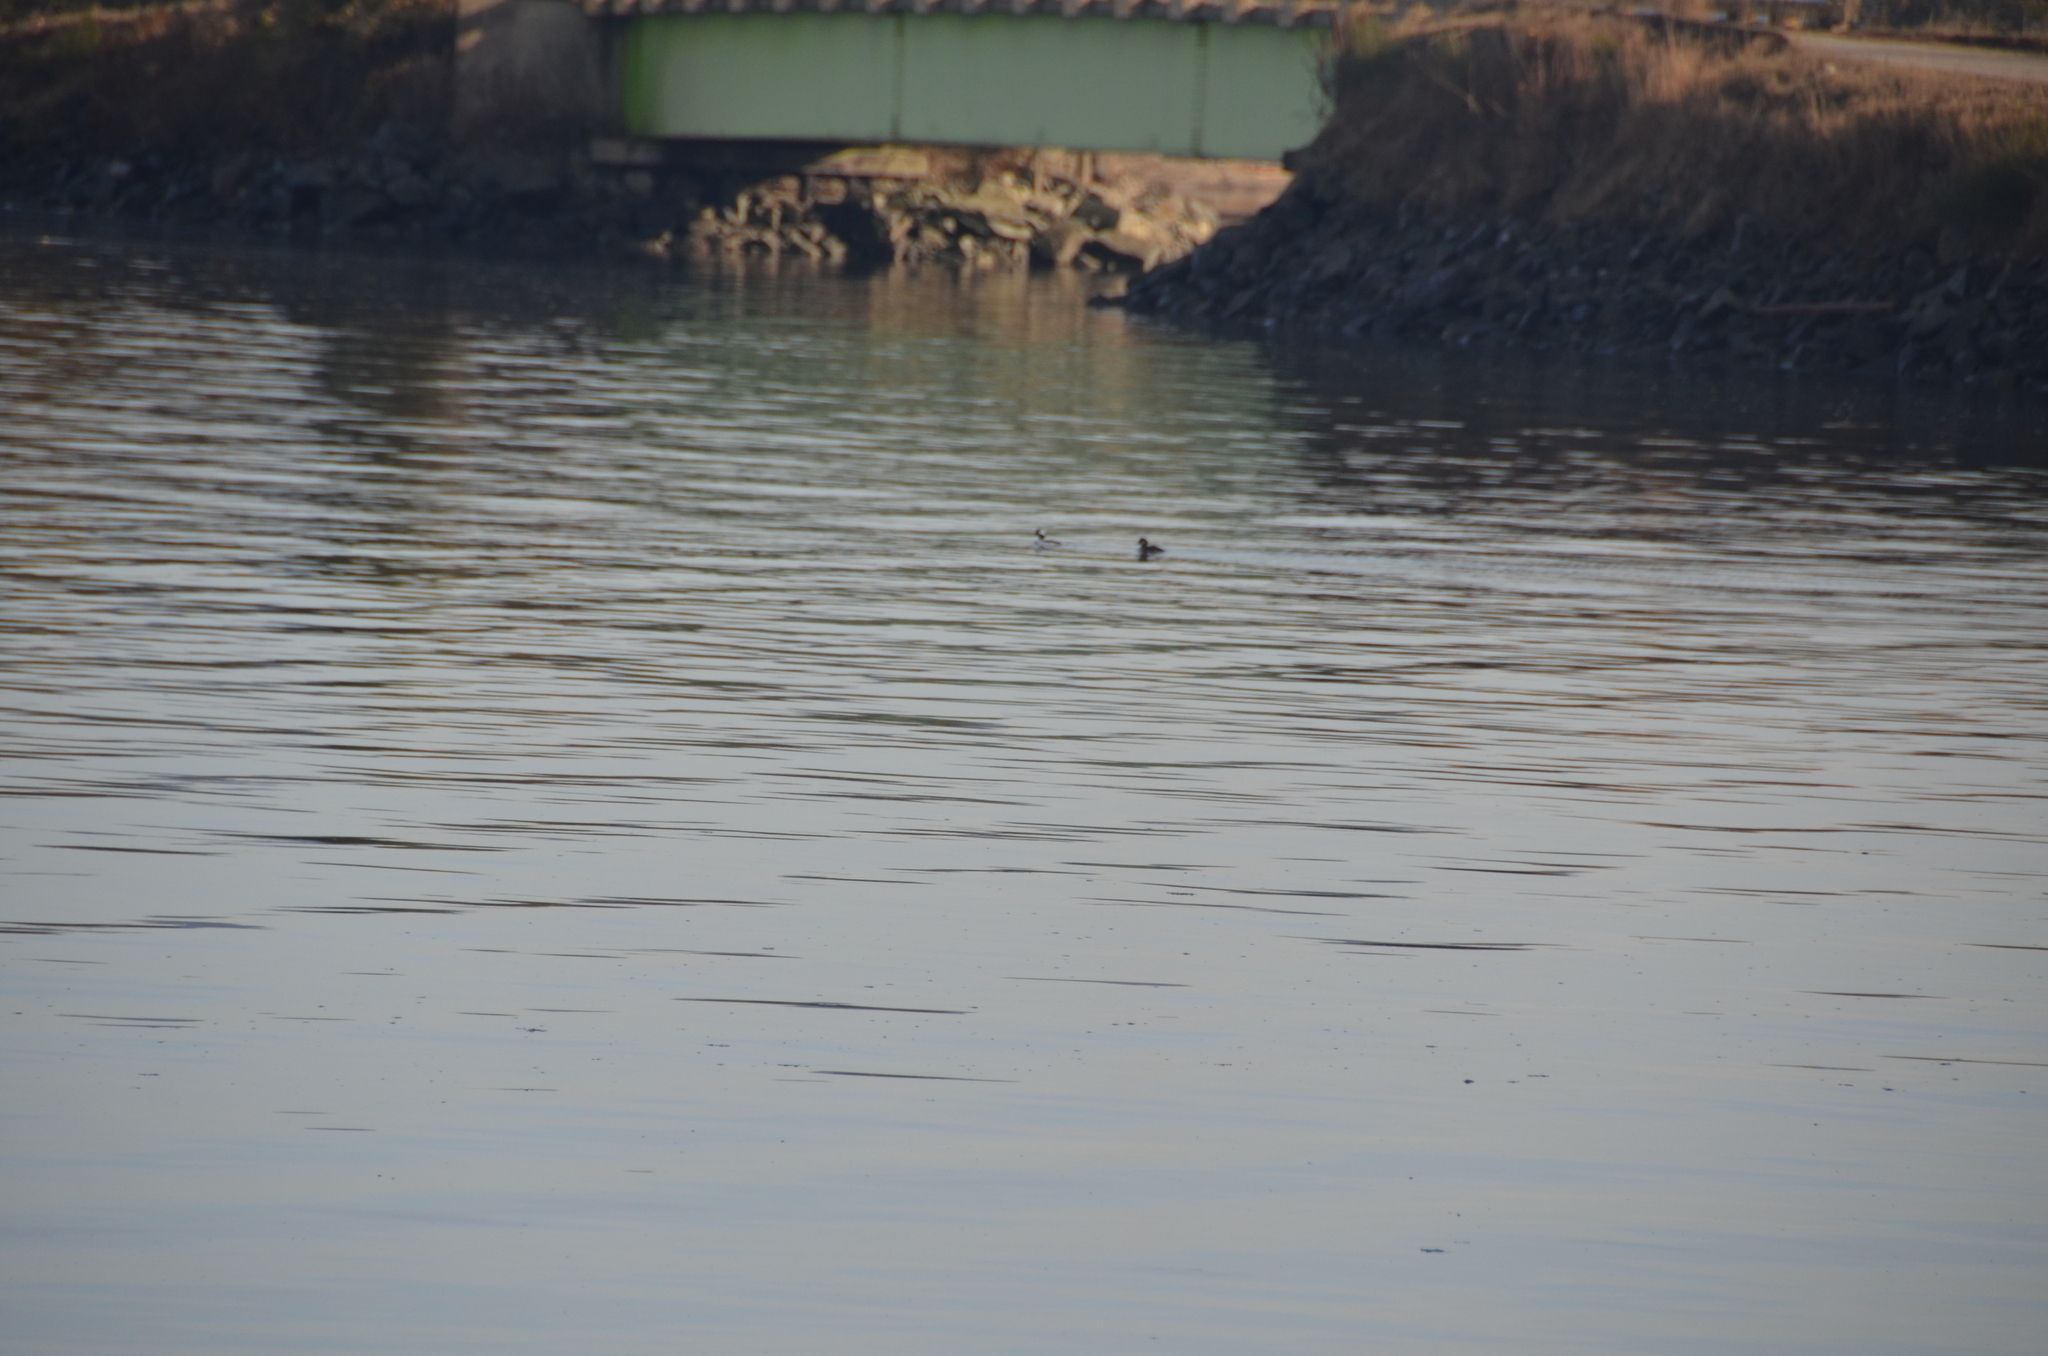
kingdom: Animalia
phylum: Chordata
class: Aves
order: Anseriformes
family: Anatidae
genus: Bucephala
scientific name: Bucephala albeola
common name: Bufflehead
